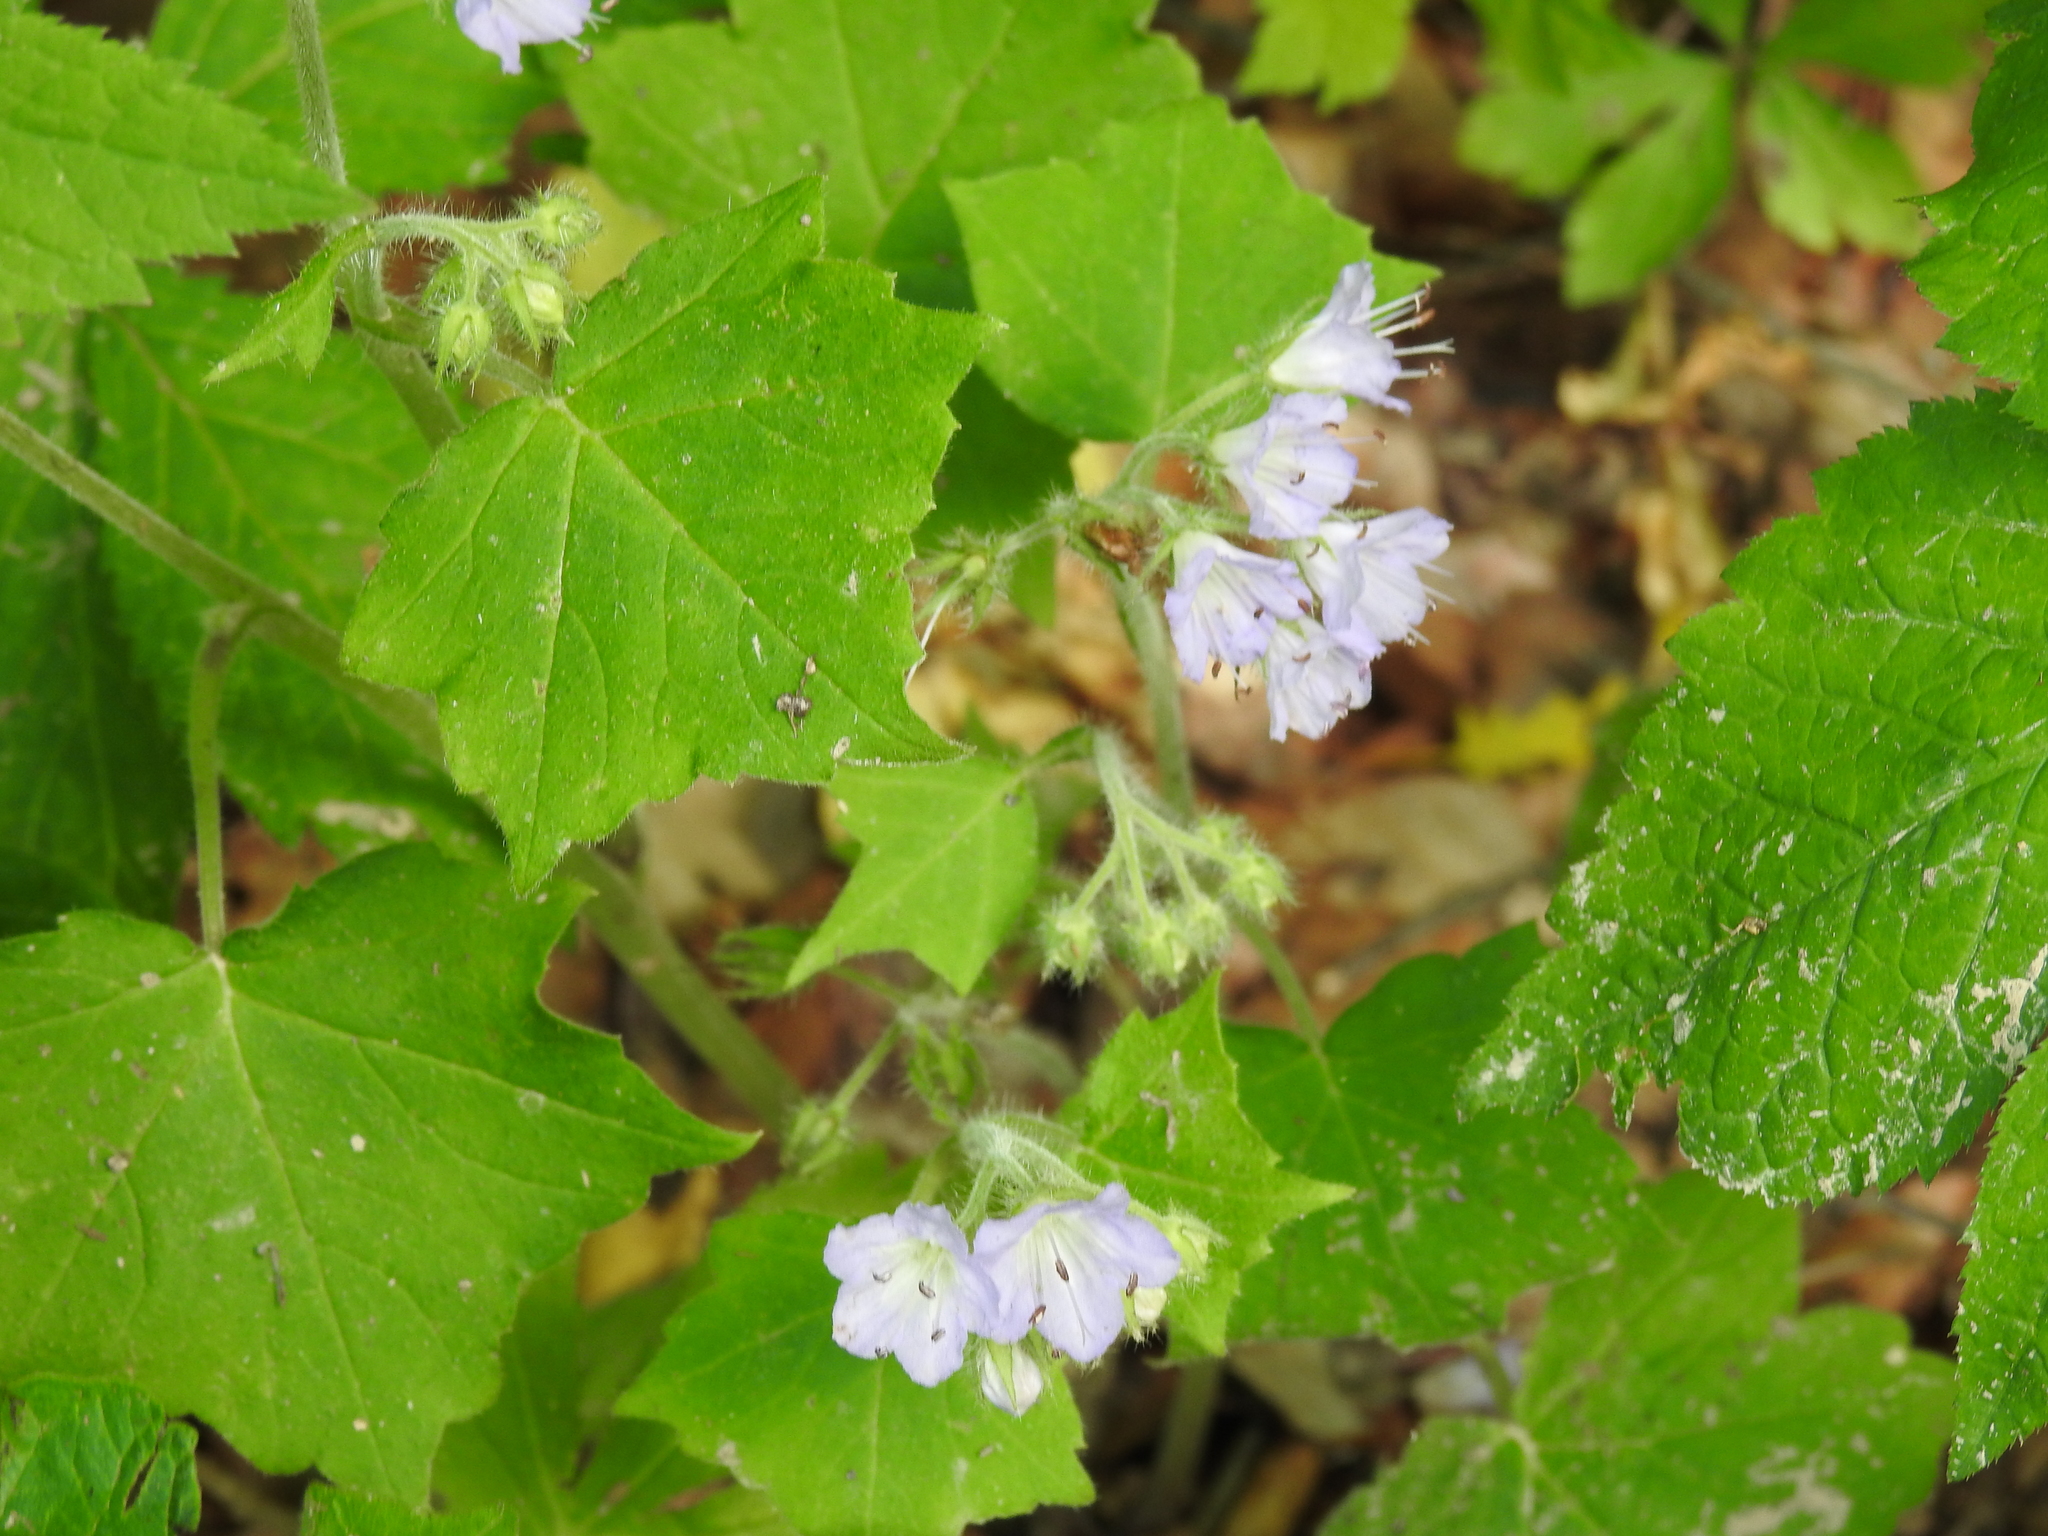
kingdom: Plantae
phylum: Tracheophyta
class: Magnoliopsida
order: Boraginales
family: Hydrophyllaceae
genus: Hydrophyllum
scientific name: Hydrophyllum appendiculatum
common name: Appendaged waterleaf
